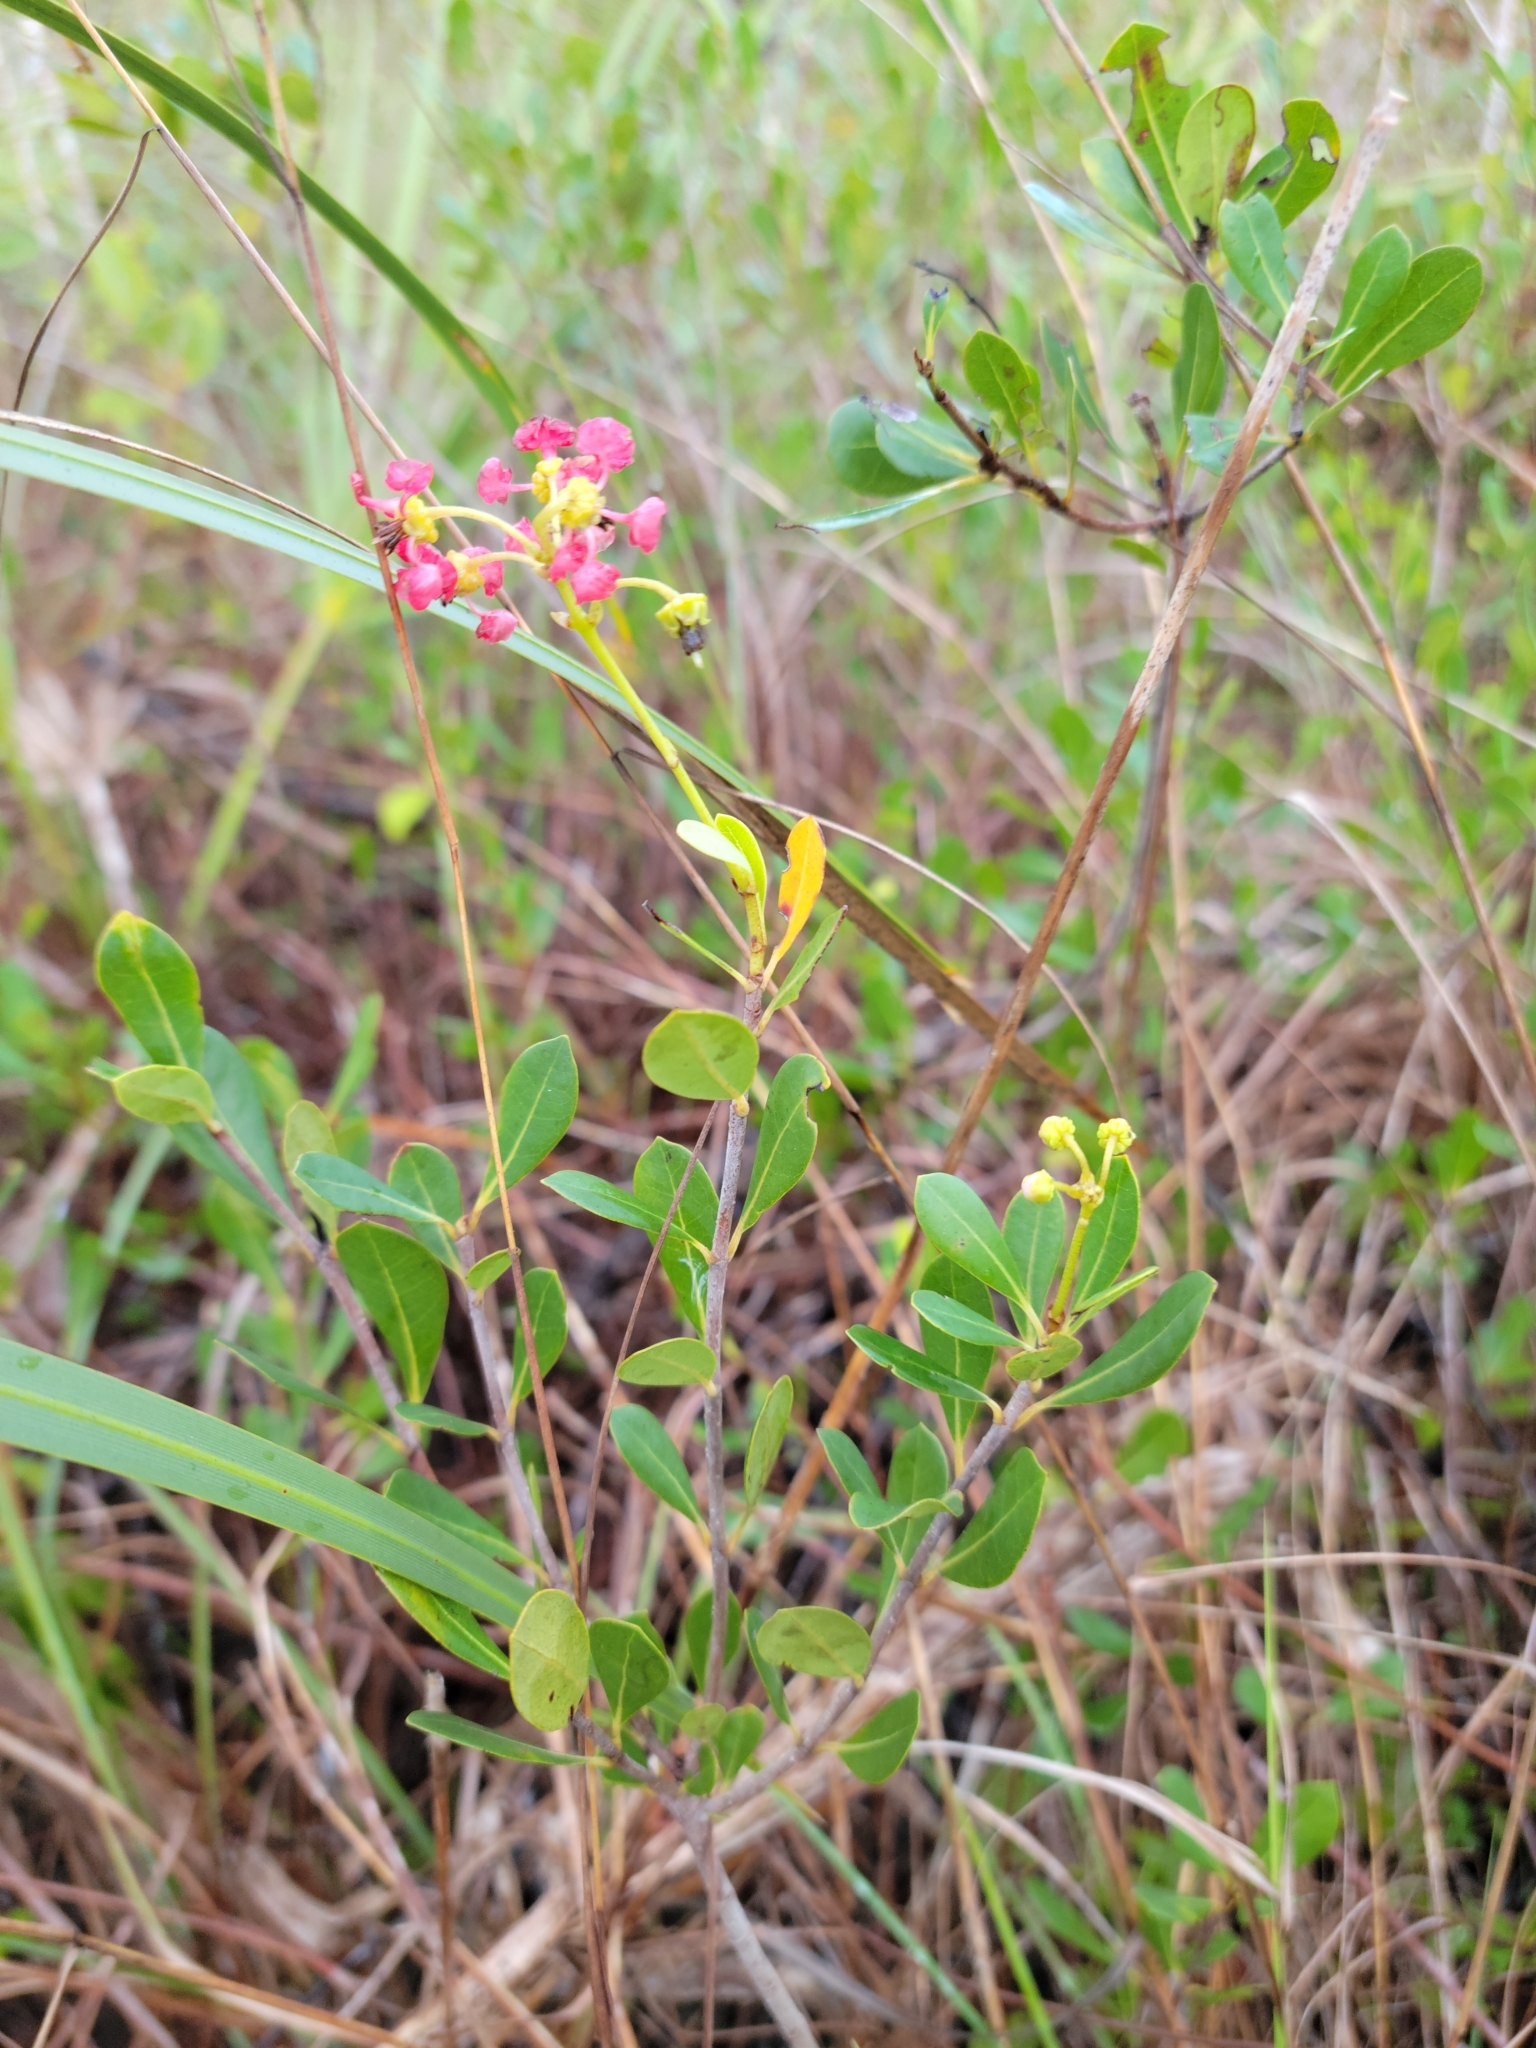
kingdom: Plantae
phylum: Tracheophyta
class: Magnoliopsida
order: Malpighiales
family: Malpighiaceae
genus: Byrsonima
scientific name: Byrsonima lucida
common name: Clam-cherry
